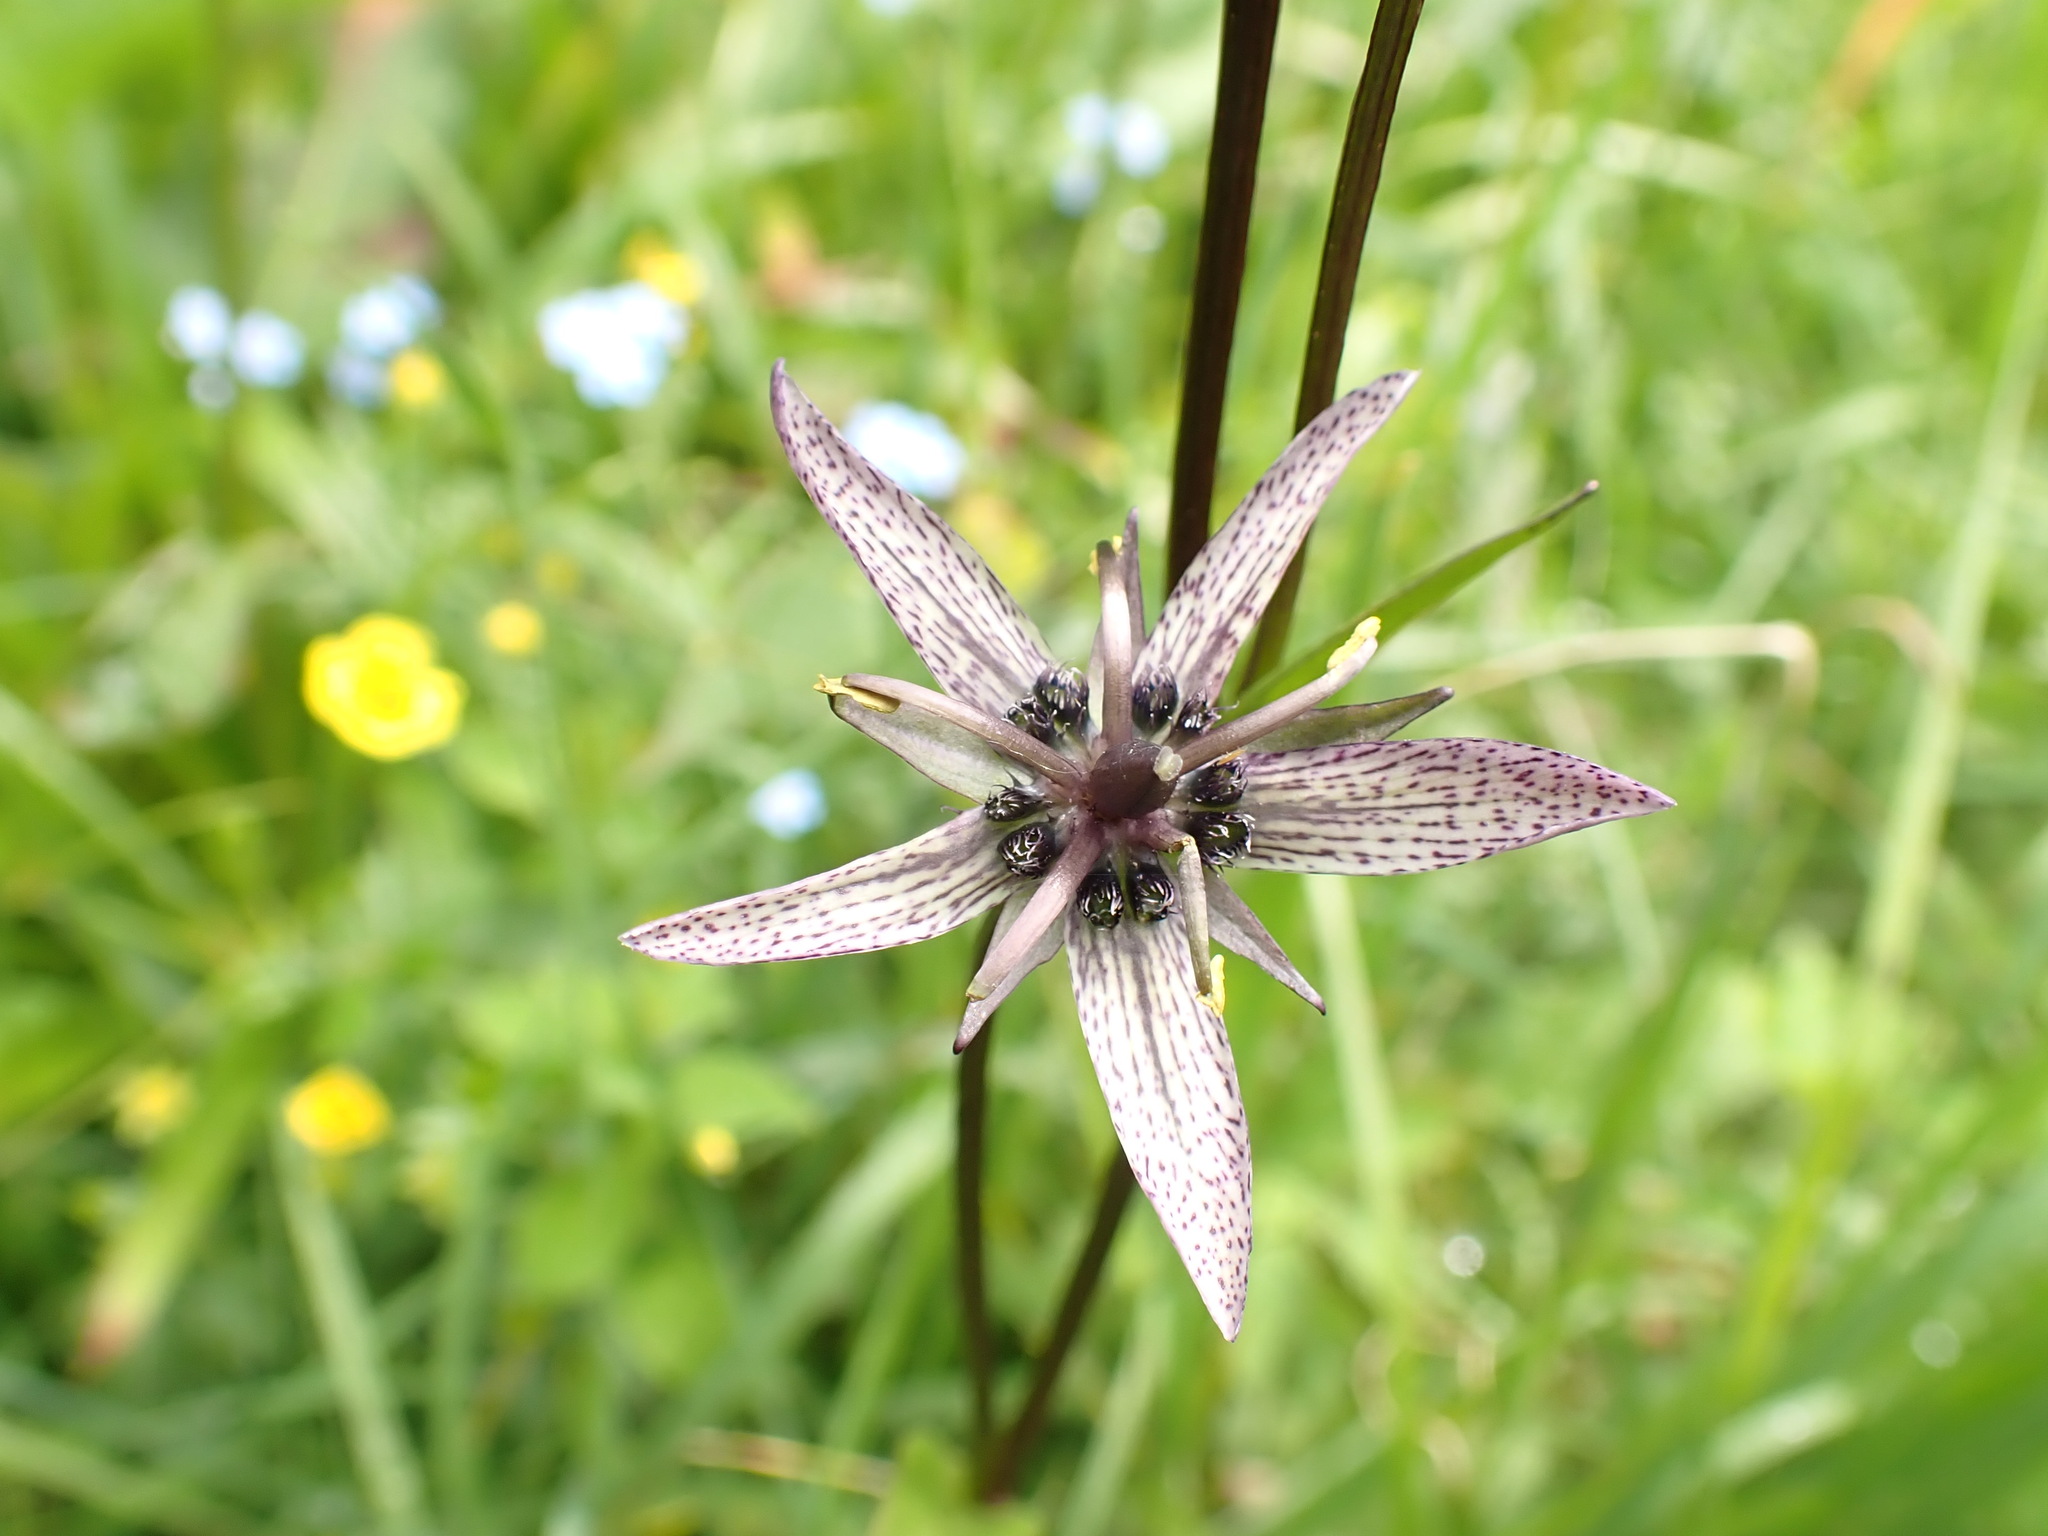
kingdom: Plantae
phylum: Tracheophyta
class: Magnoliopsida
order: Gentianales
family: Gentianaceae
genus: Swertia
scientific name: Swertia perennis
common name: Alpine bog swertia
